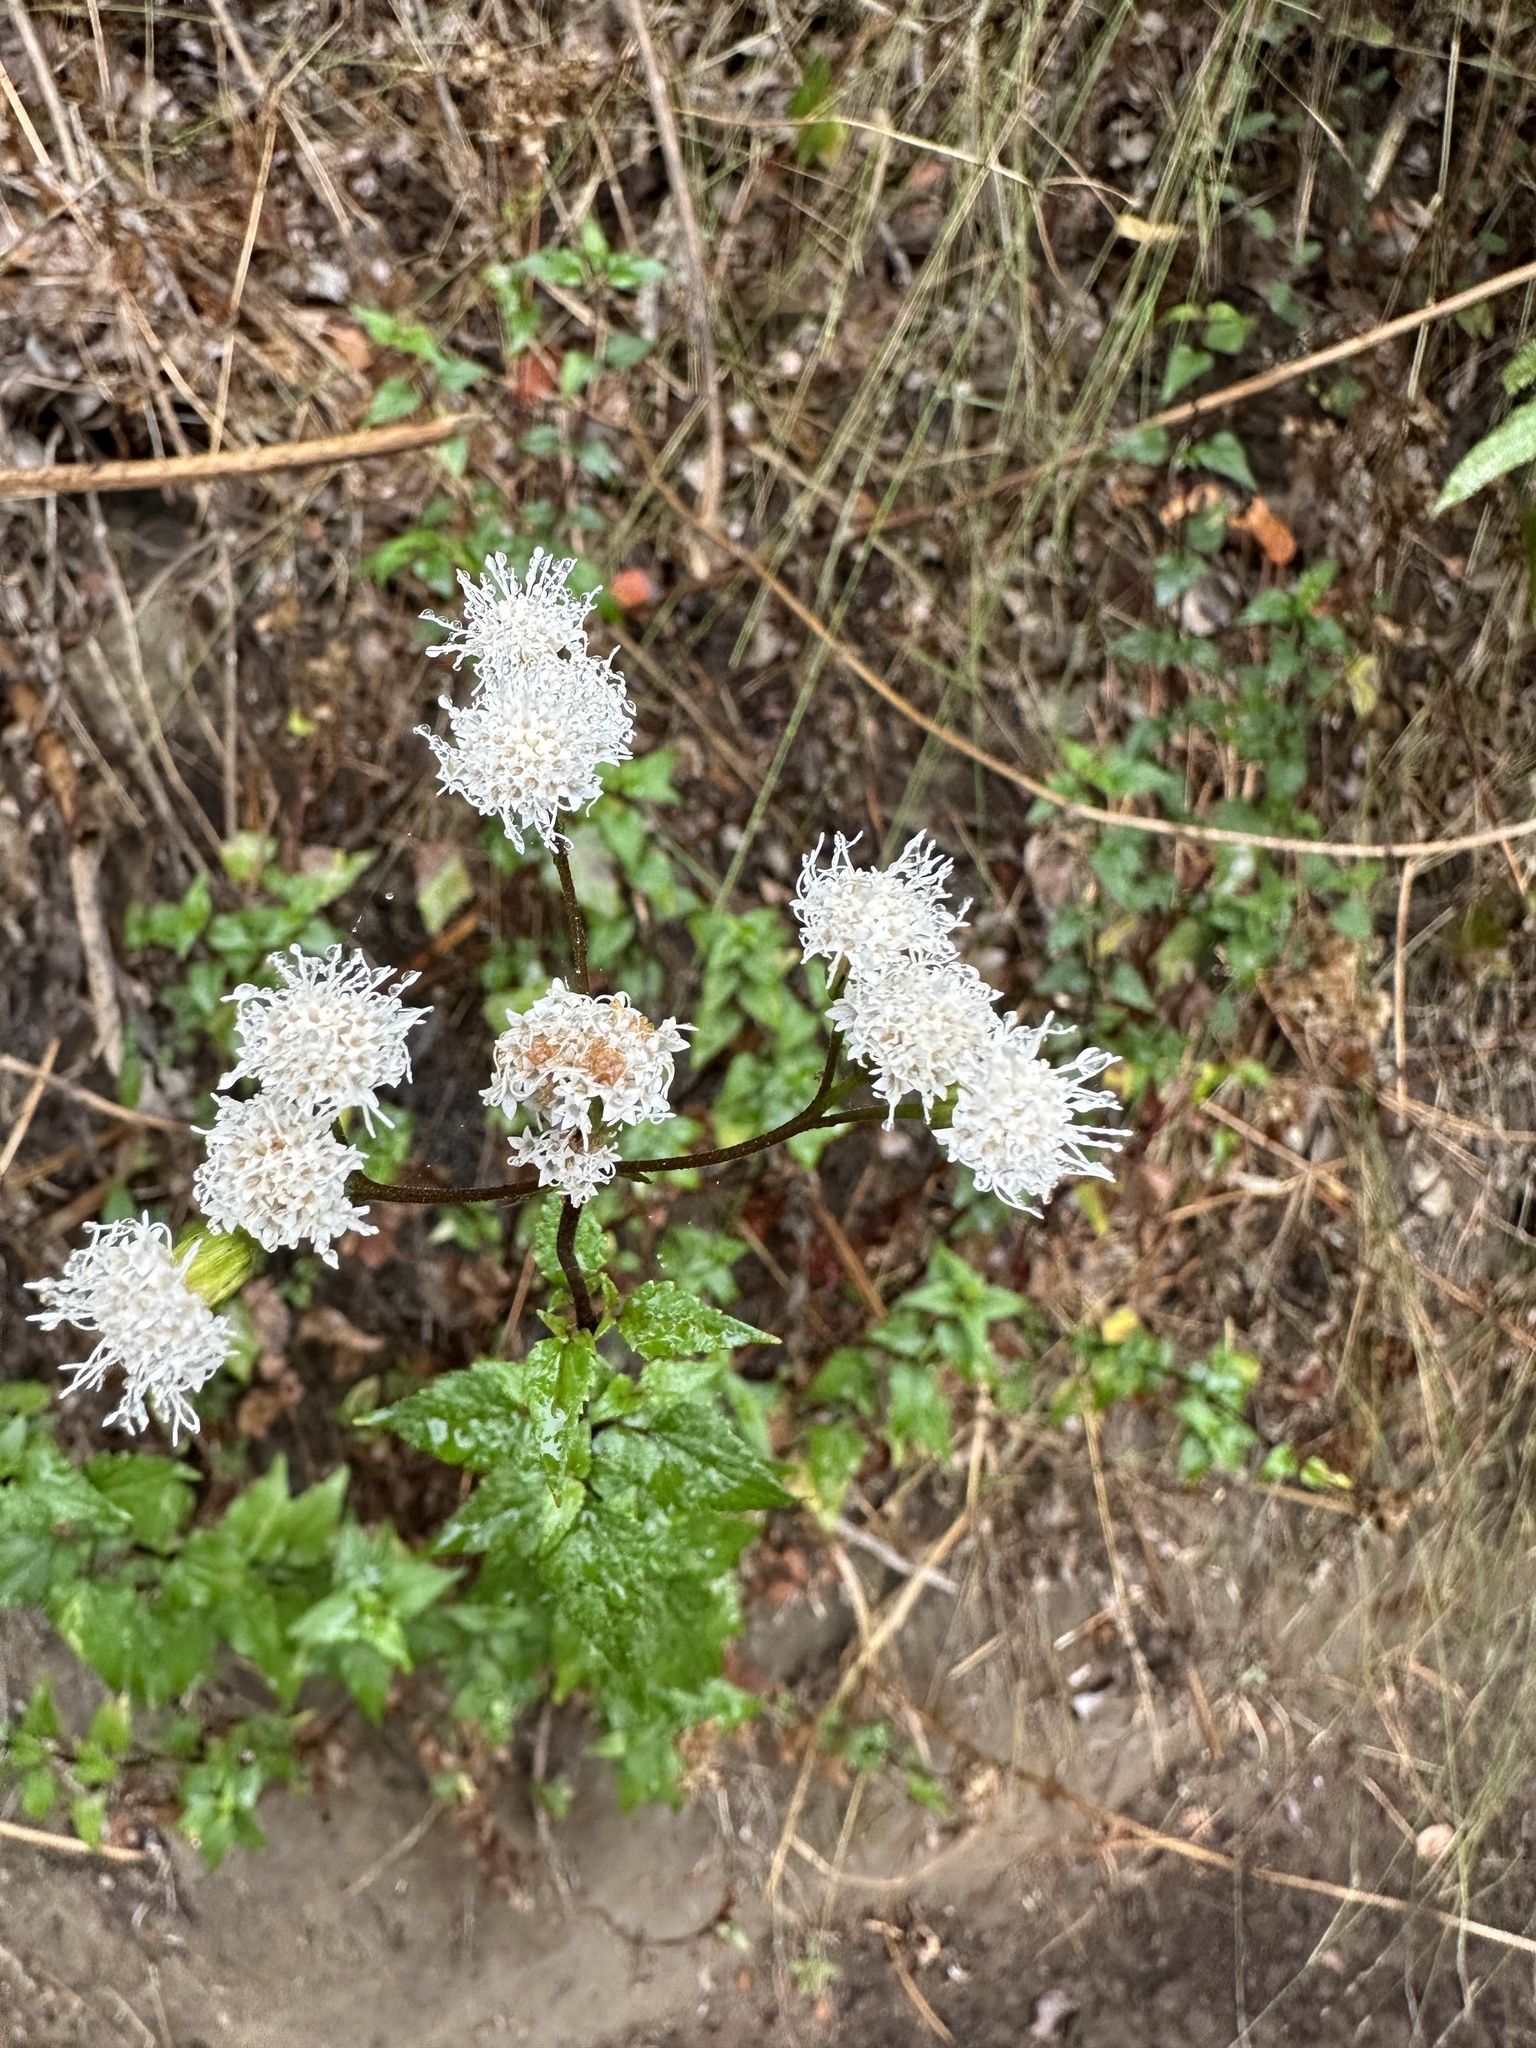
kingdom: Plantae
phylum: Tracheophyta
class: Magnoliopsida
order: Asterales
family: Asteraceae
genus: Ageratina
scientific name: Ageratina glechonophylla
